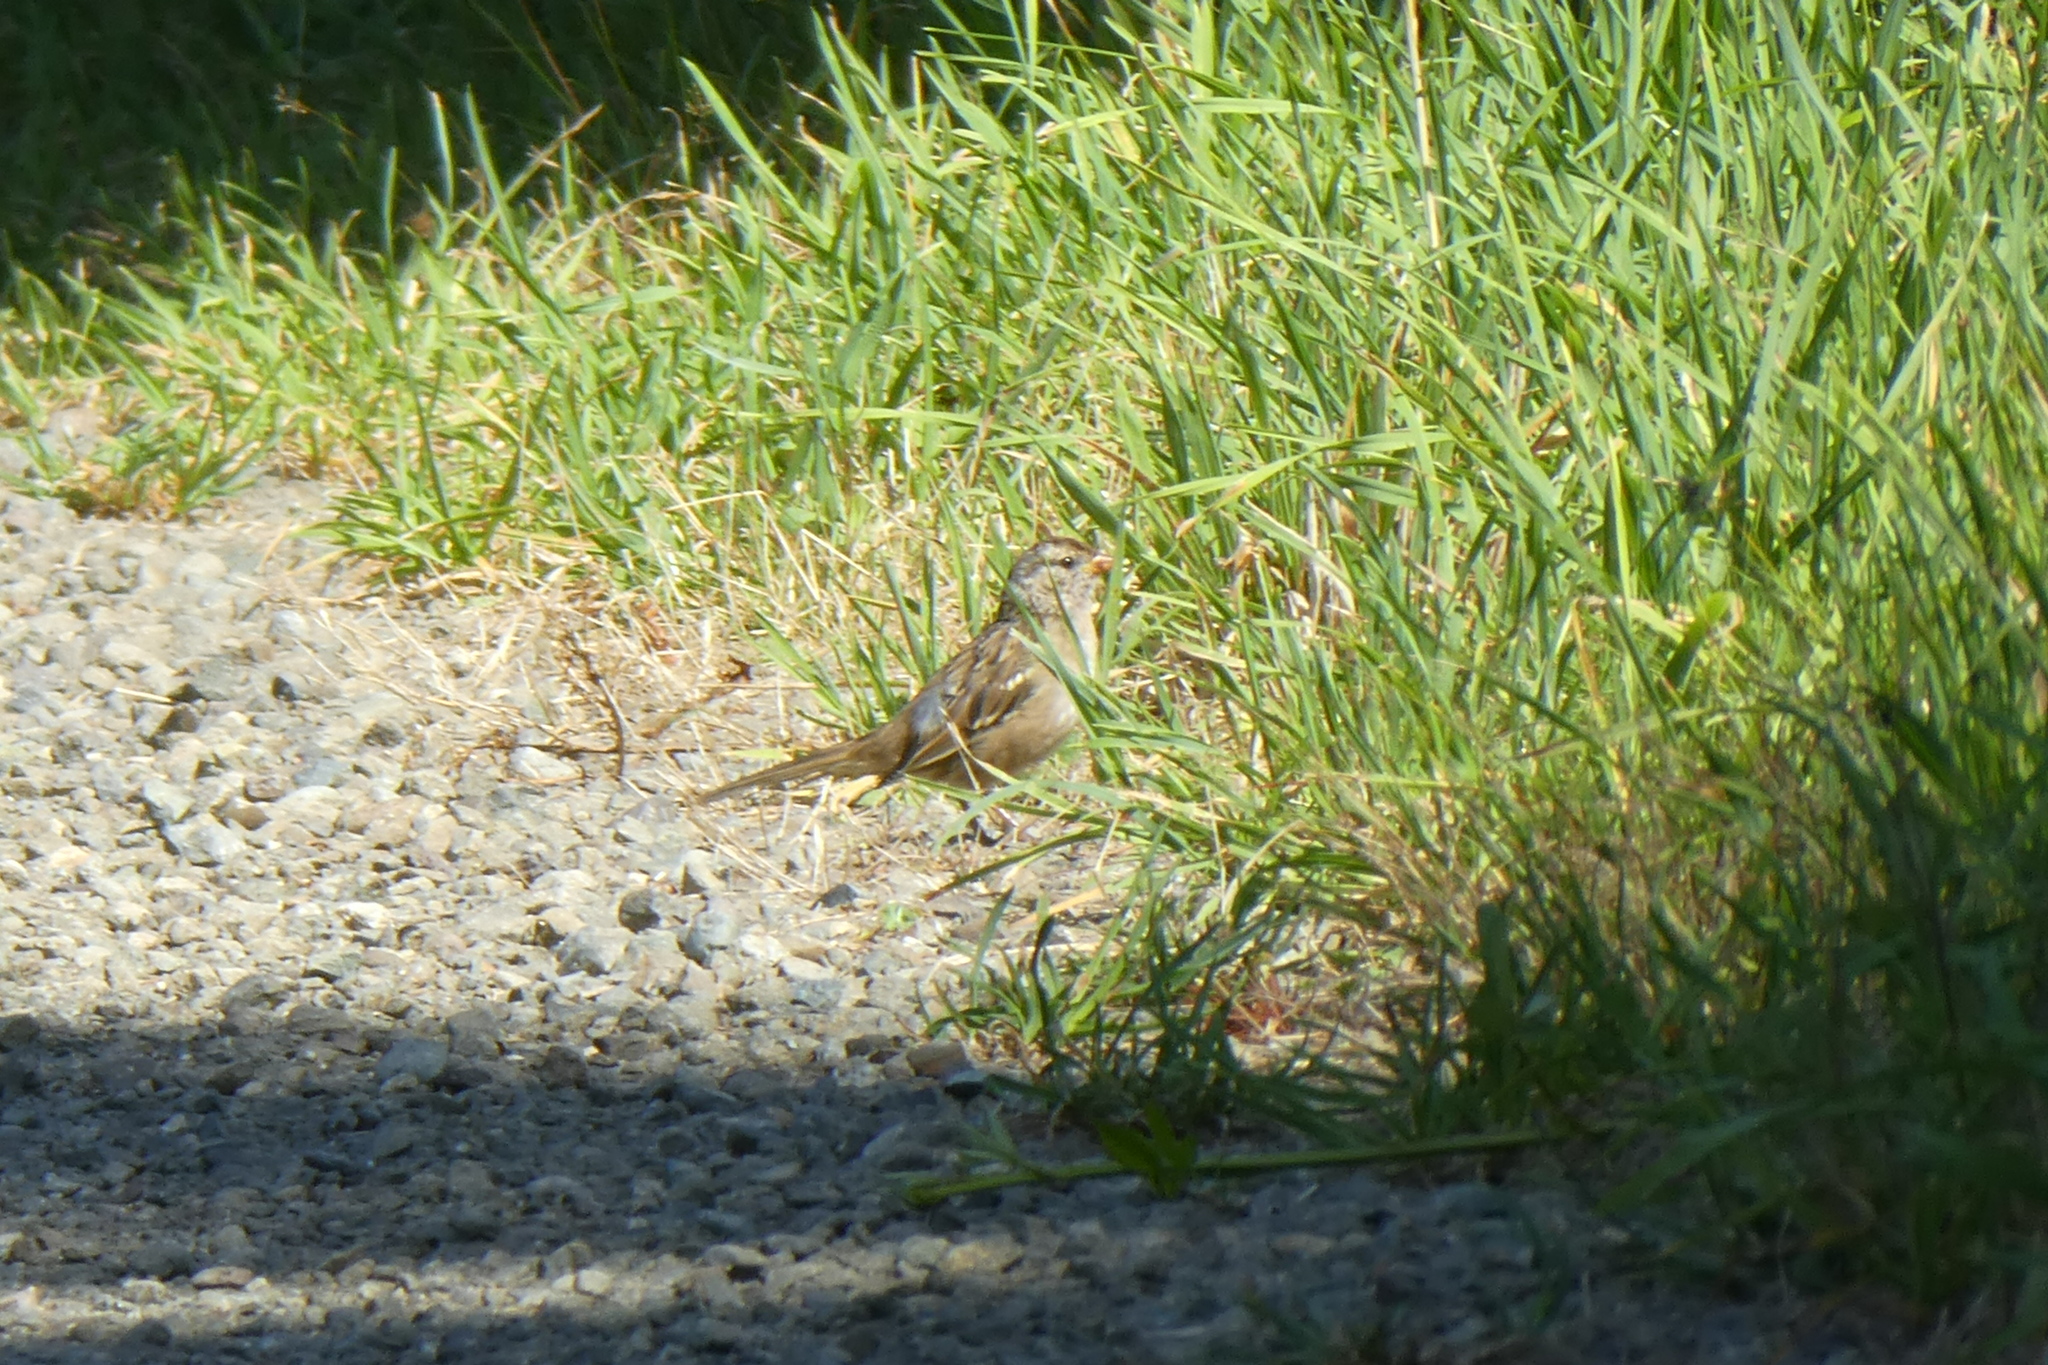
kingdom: Animalia
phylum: Chordata
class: Aves
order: Passeriformes
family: Passerellidae
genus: Zonotrichia
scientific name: Zonotrichia leucophrys
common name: White-crowned sparrow
